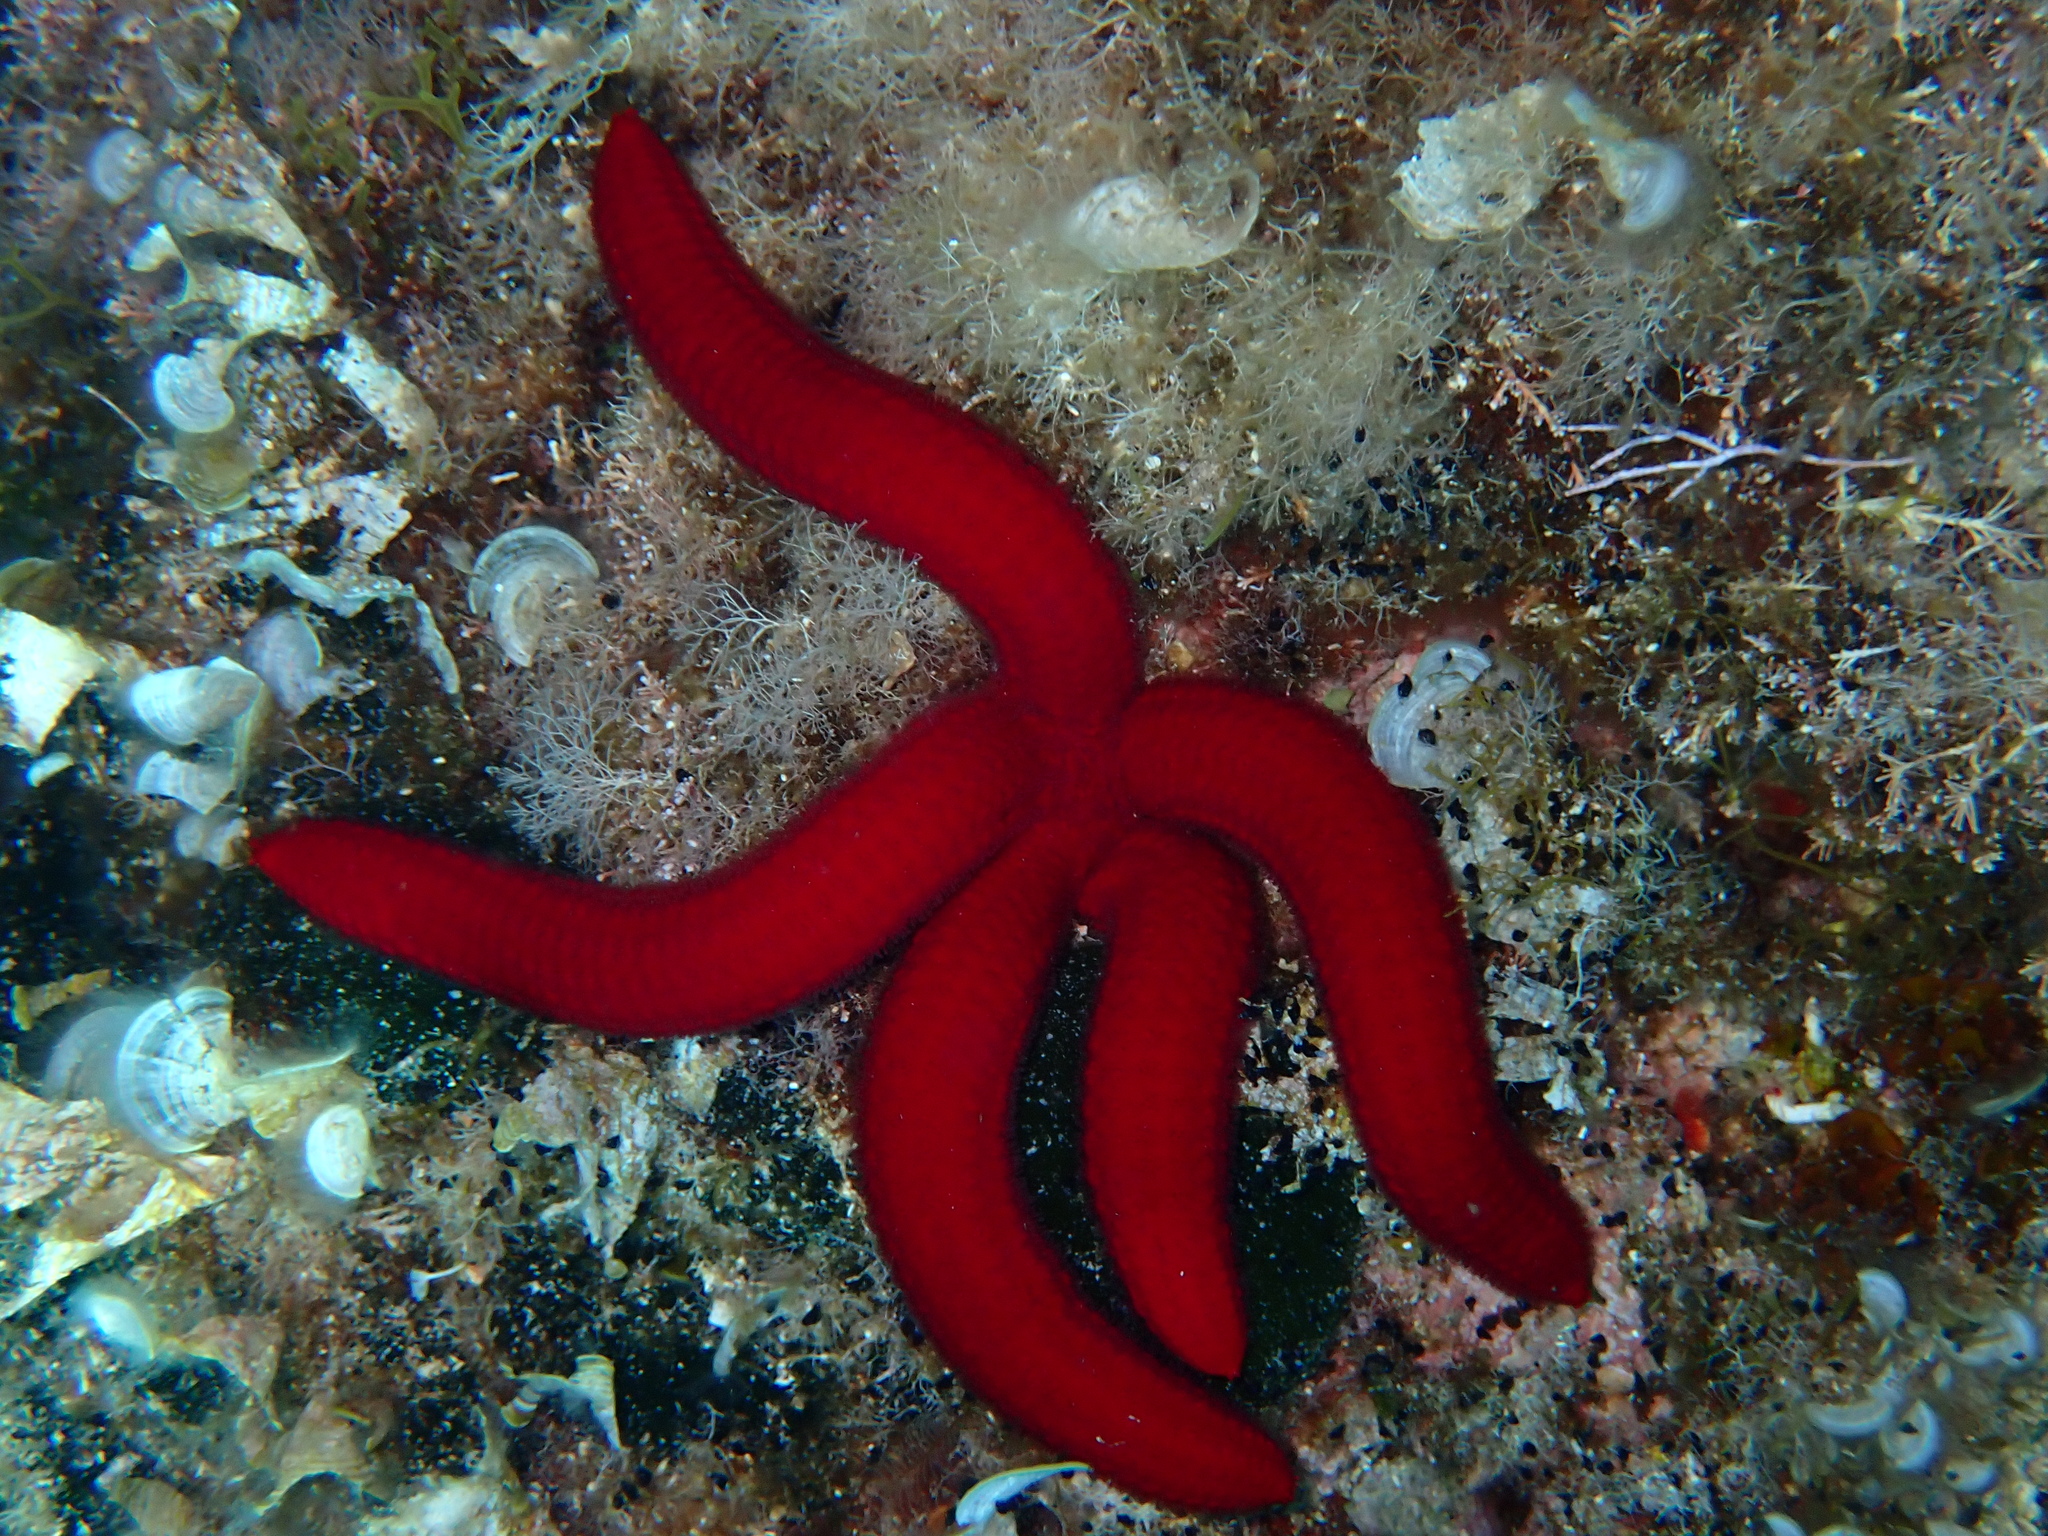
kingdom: Animalia
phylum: Echinodermata
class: Asteroidea
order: Valvatida
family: Ophidiasteridae
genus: Ophidiaster
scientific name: Ophidiaster ophidianus
